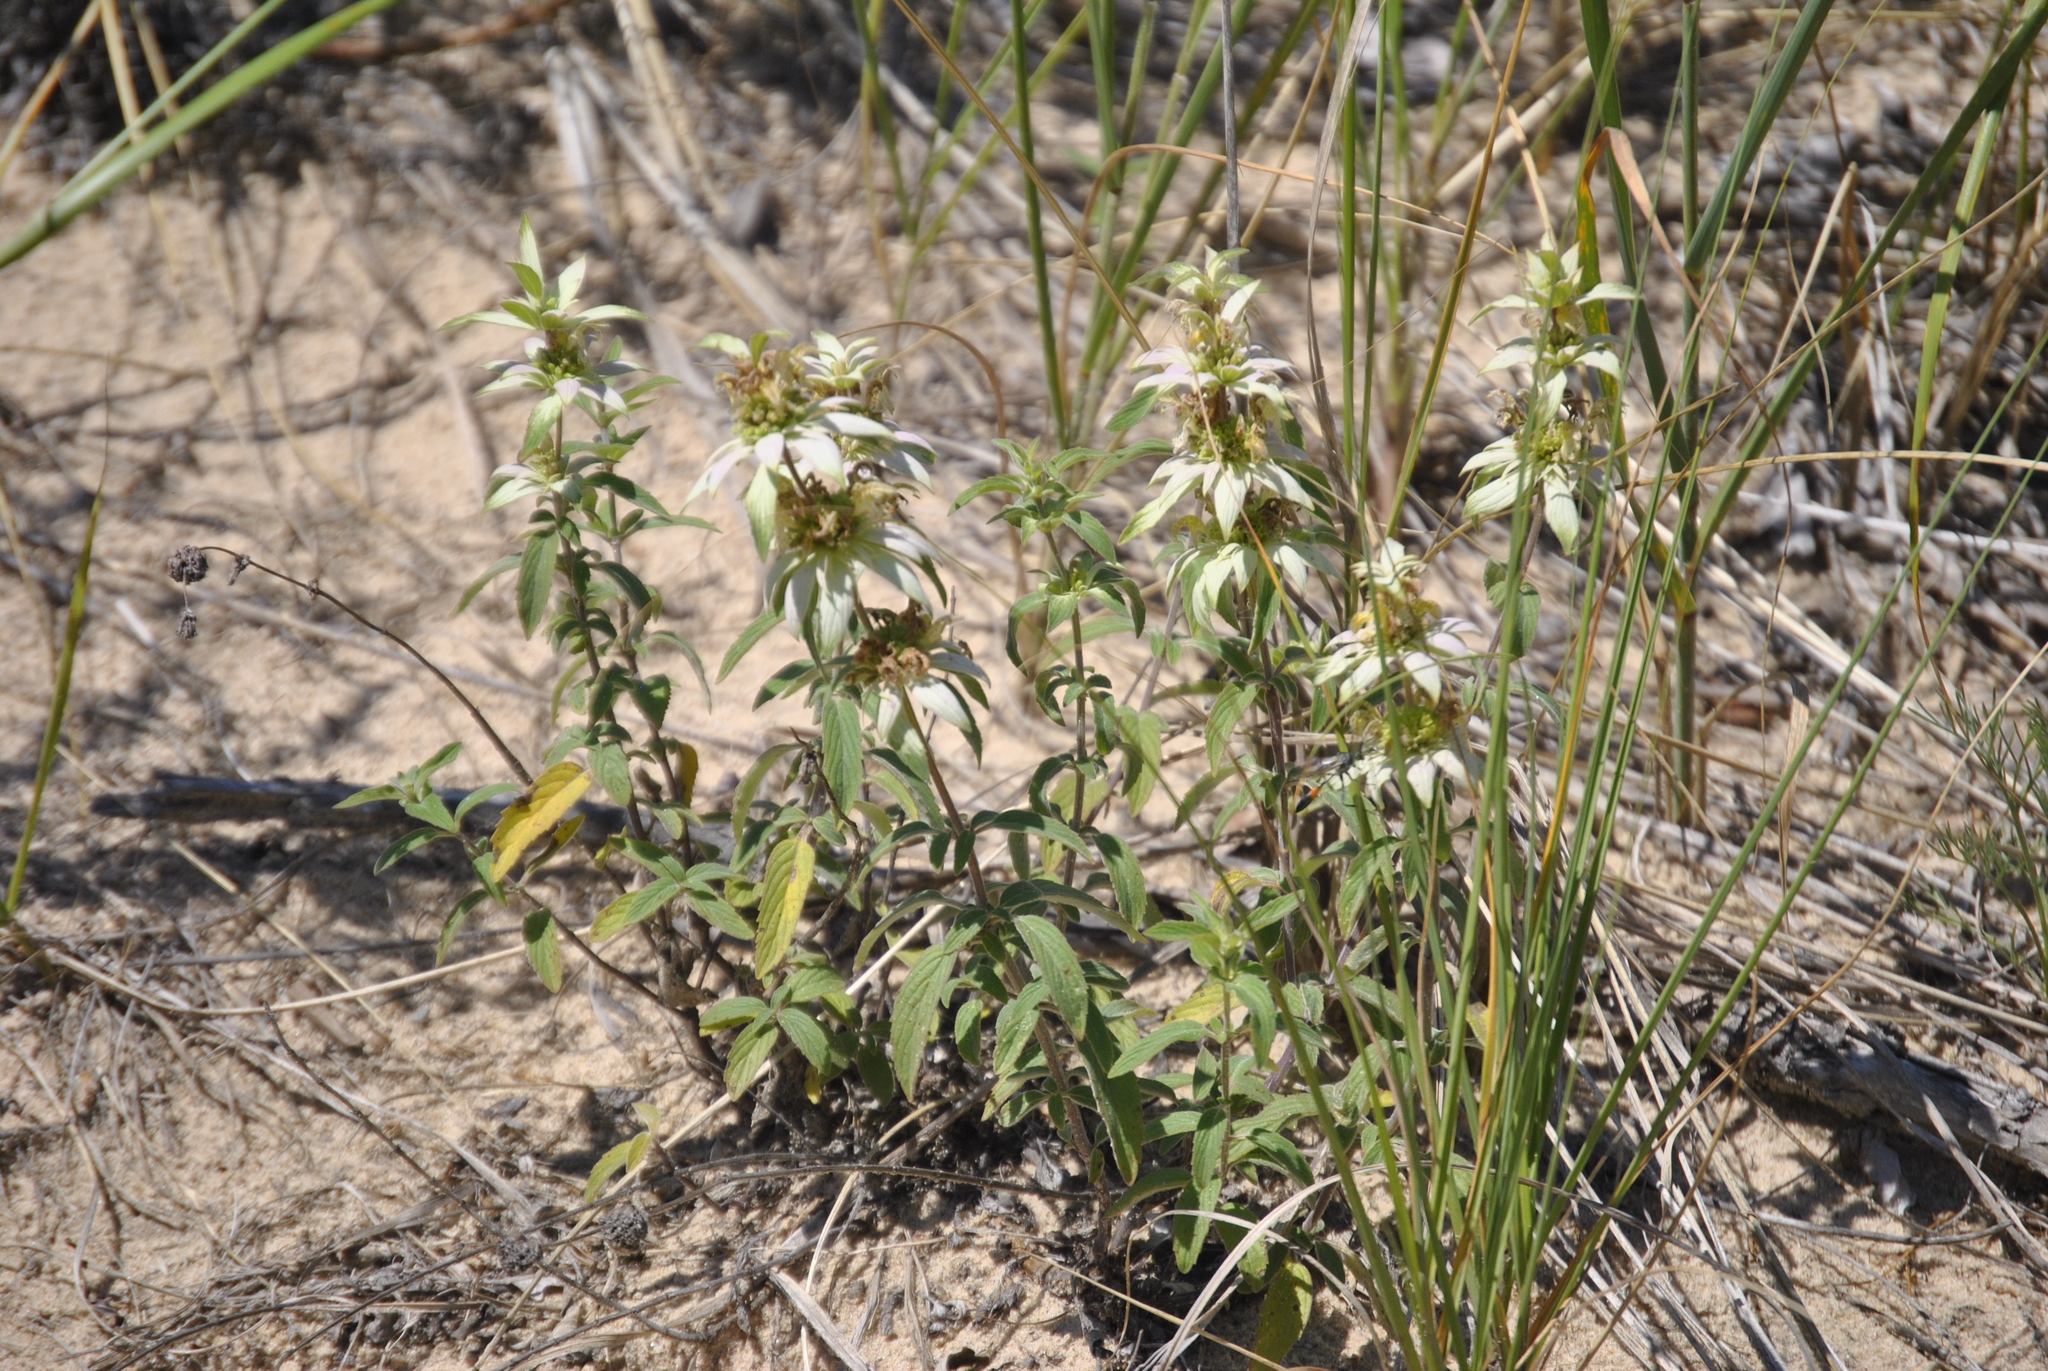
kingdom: Plantae
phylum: Tracheophyta
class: Magnoliopsida
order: Lamiales
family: Lamiaceae
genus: Monarda
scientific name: Monarda punctata
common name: Dotted monarda
